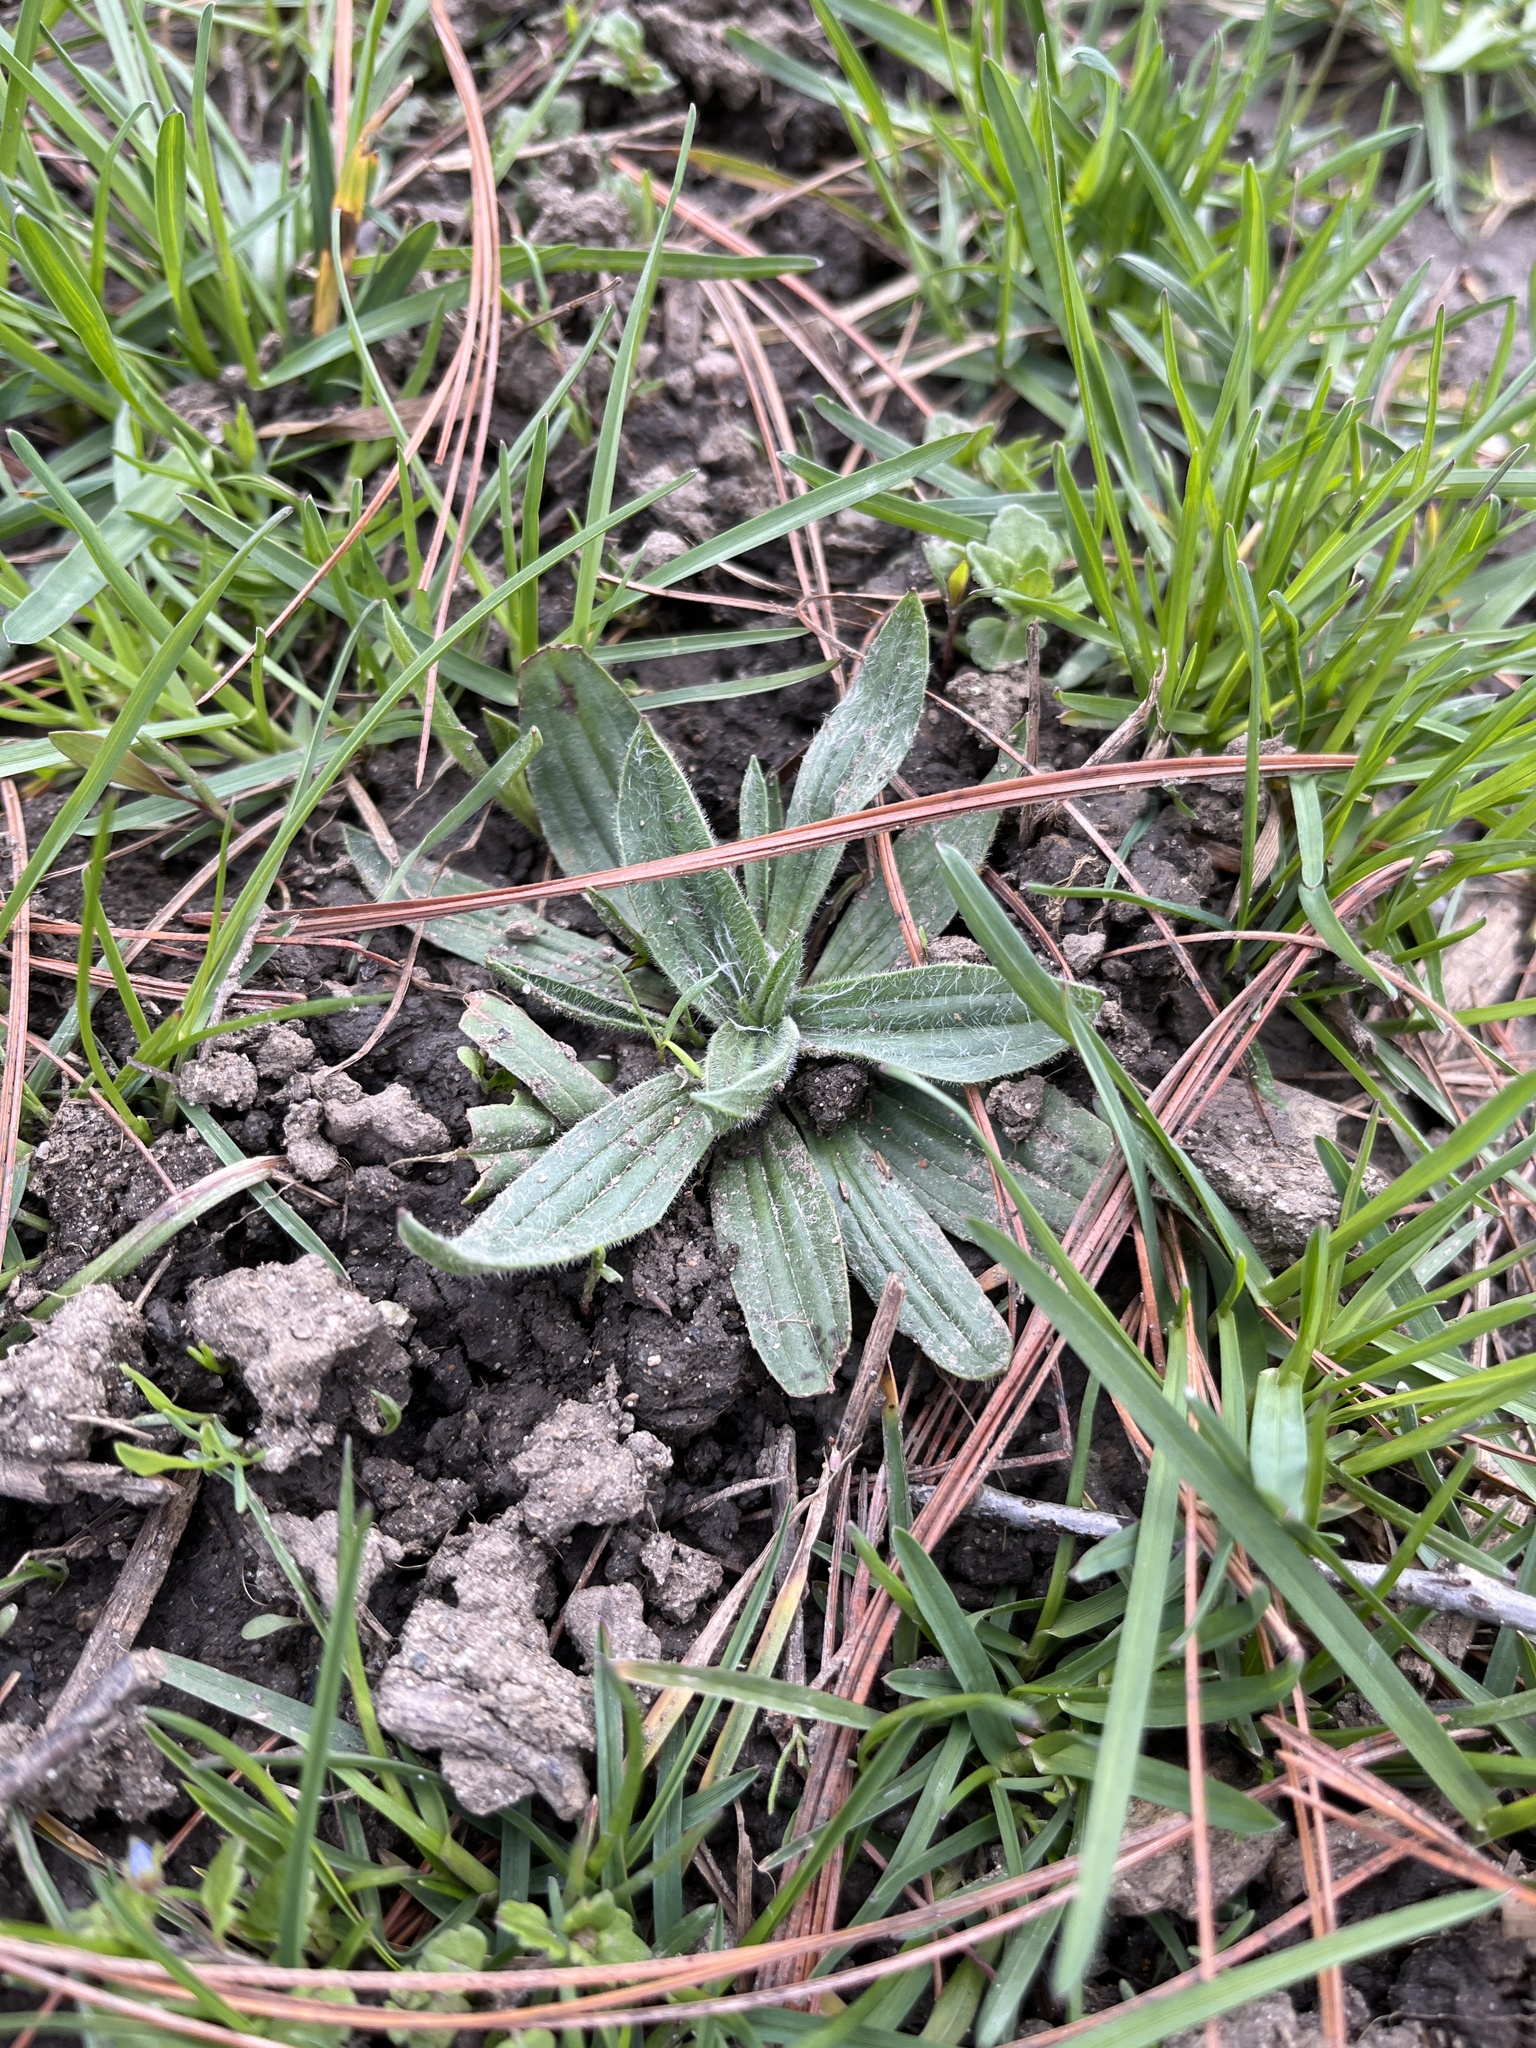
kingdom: Plantae
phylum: Tracheophyta
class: Magnoliopsida
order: Lamiales
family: Plantaginaceae
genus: Plantago
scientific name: Plantago lanceolata
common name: Ribwort plantain
